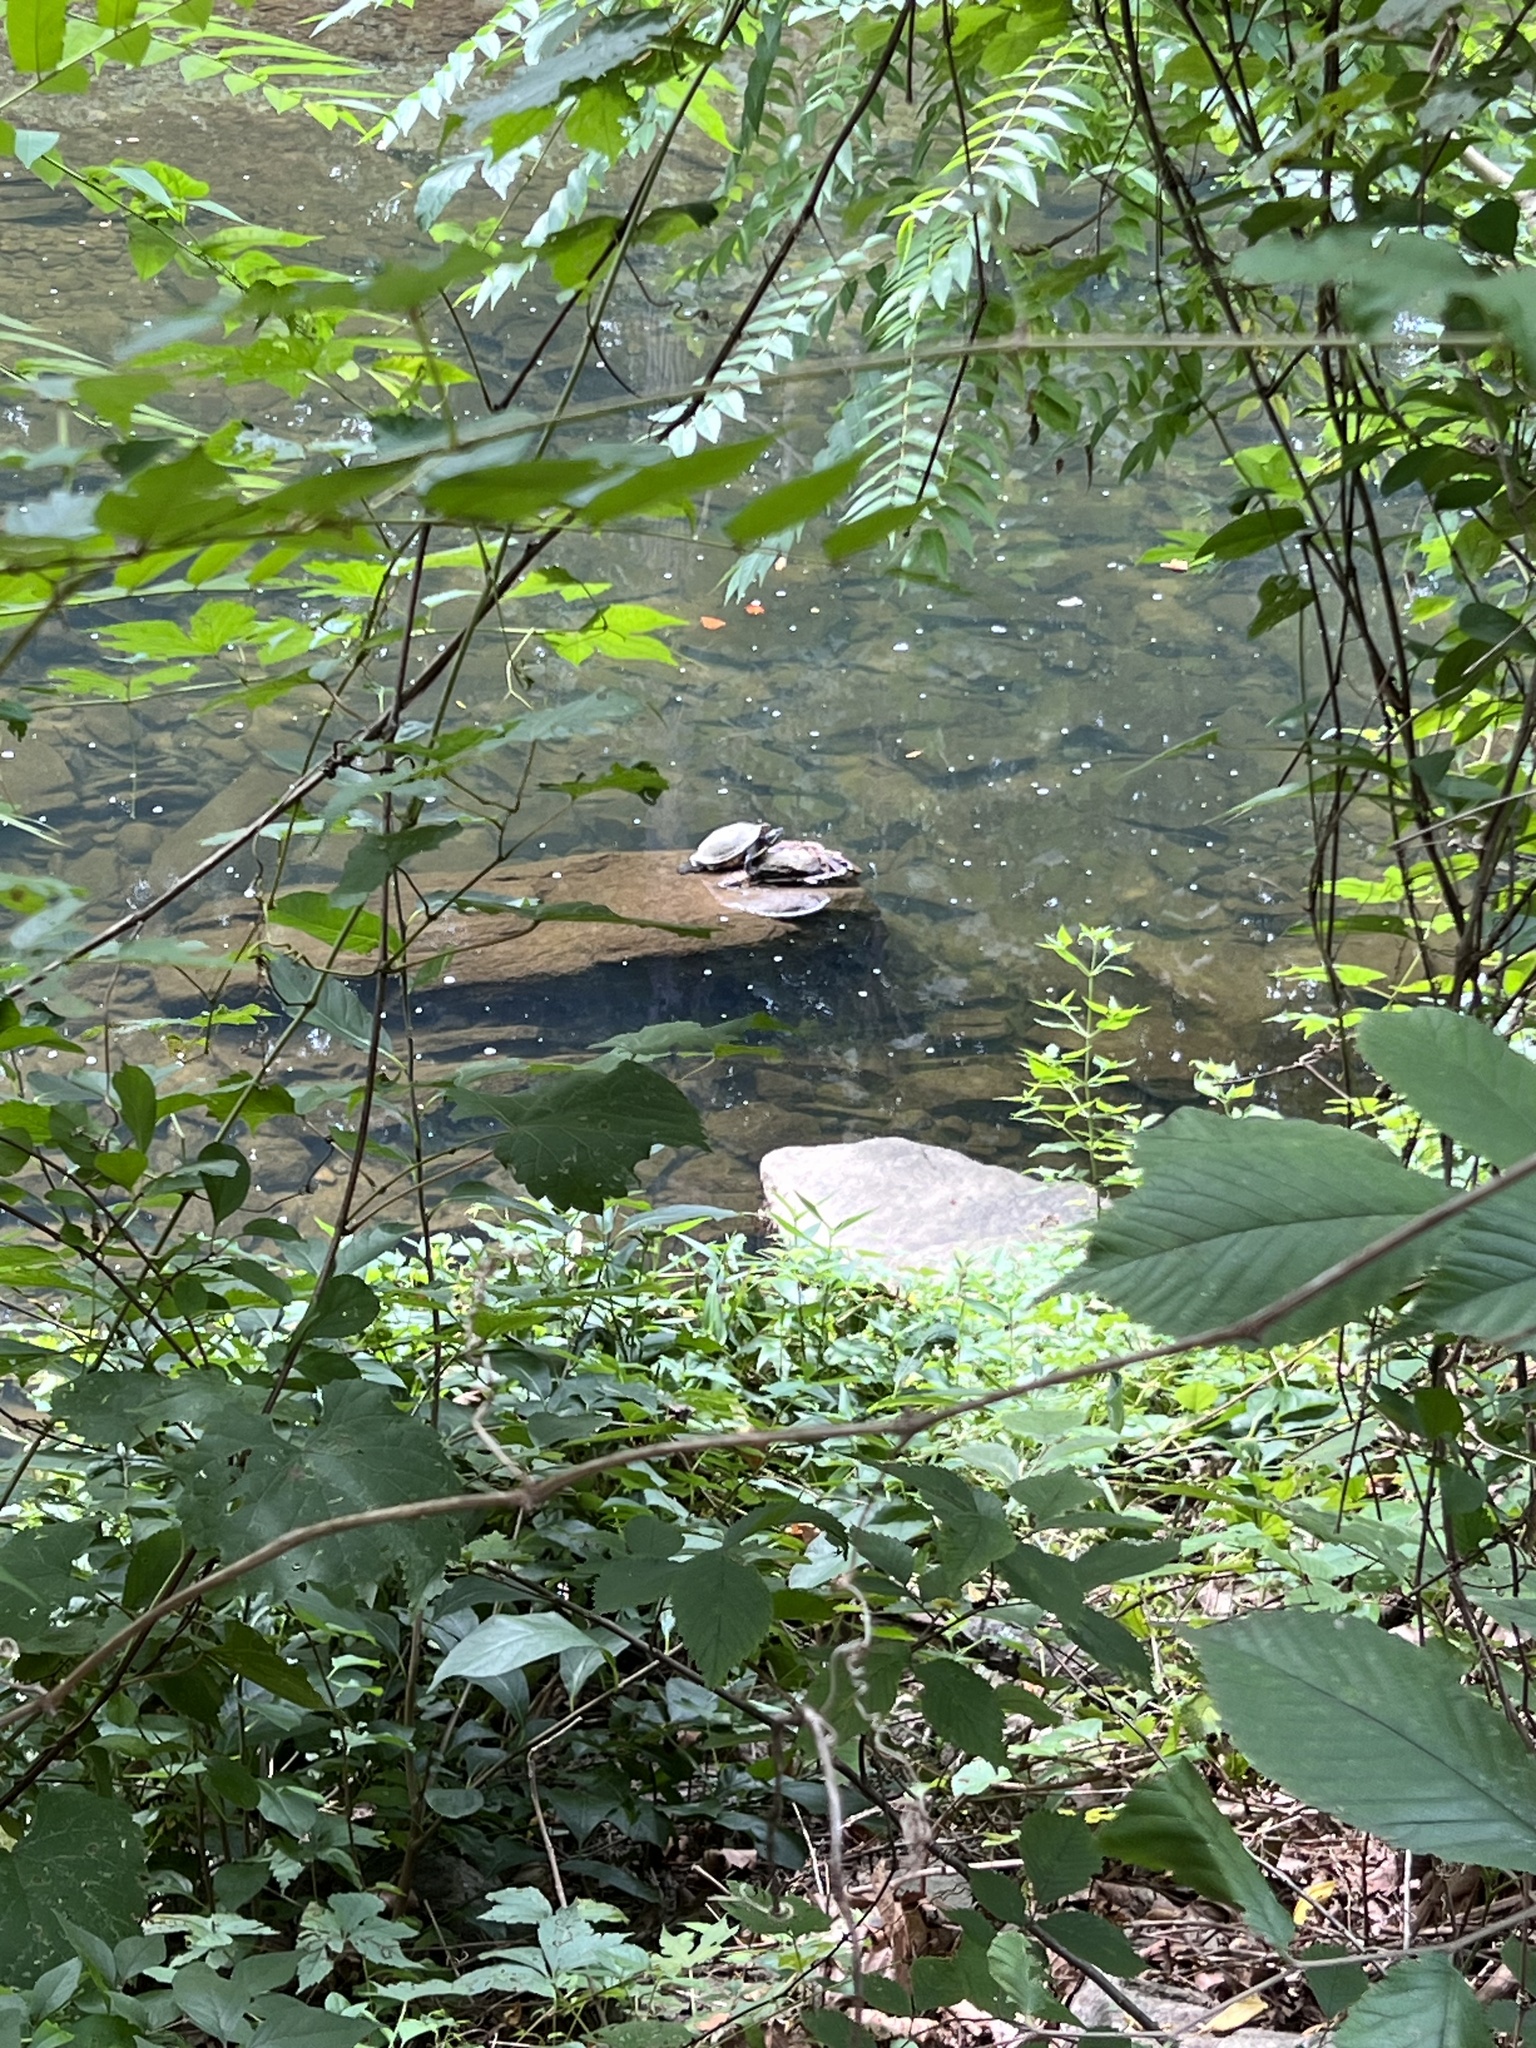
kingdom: Animalia
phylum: Chordata
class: Testudines
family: Emydidae
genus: Trachemys
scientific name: Trachemys scripta
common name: Slider
